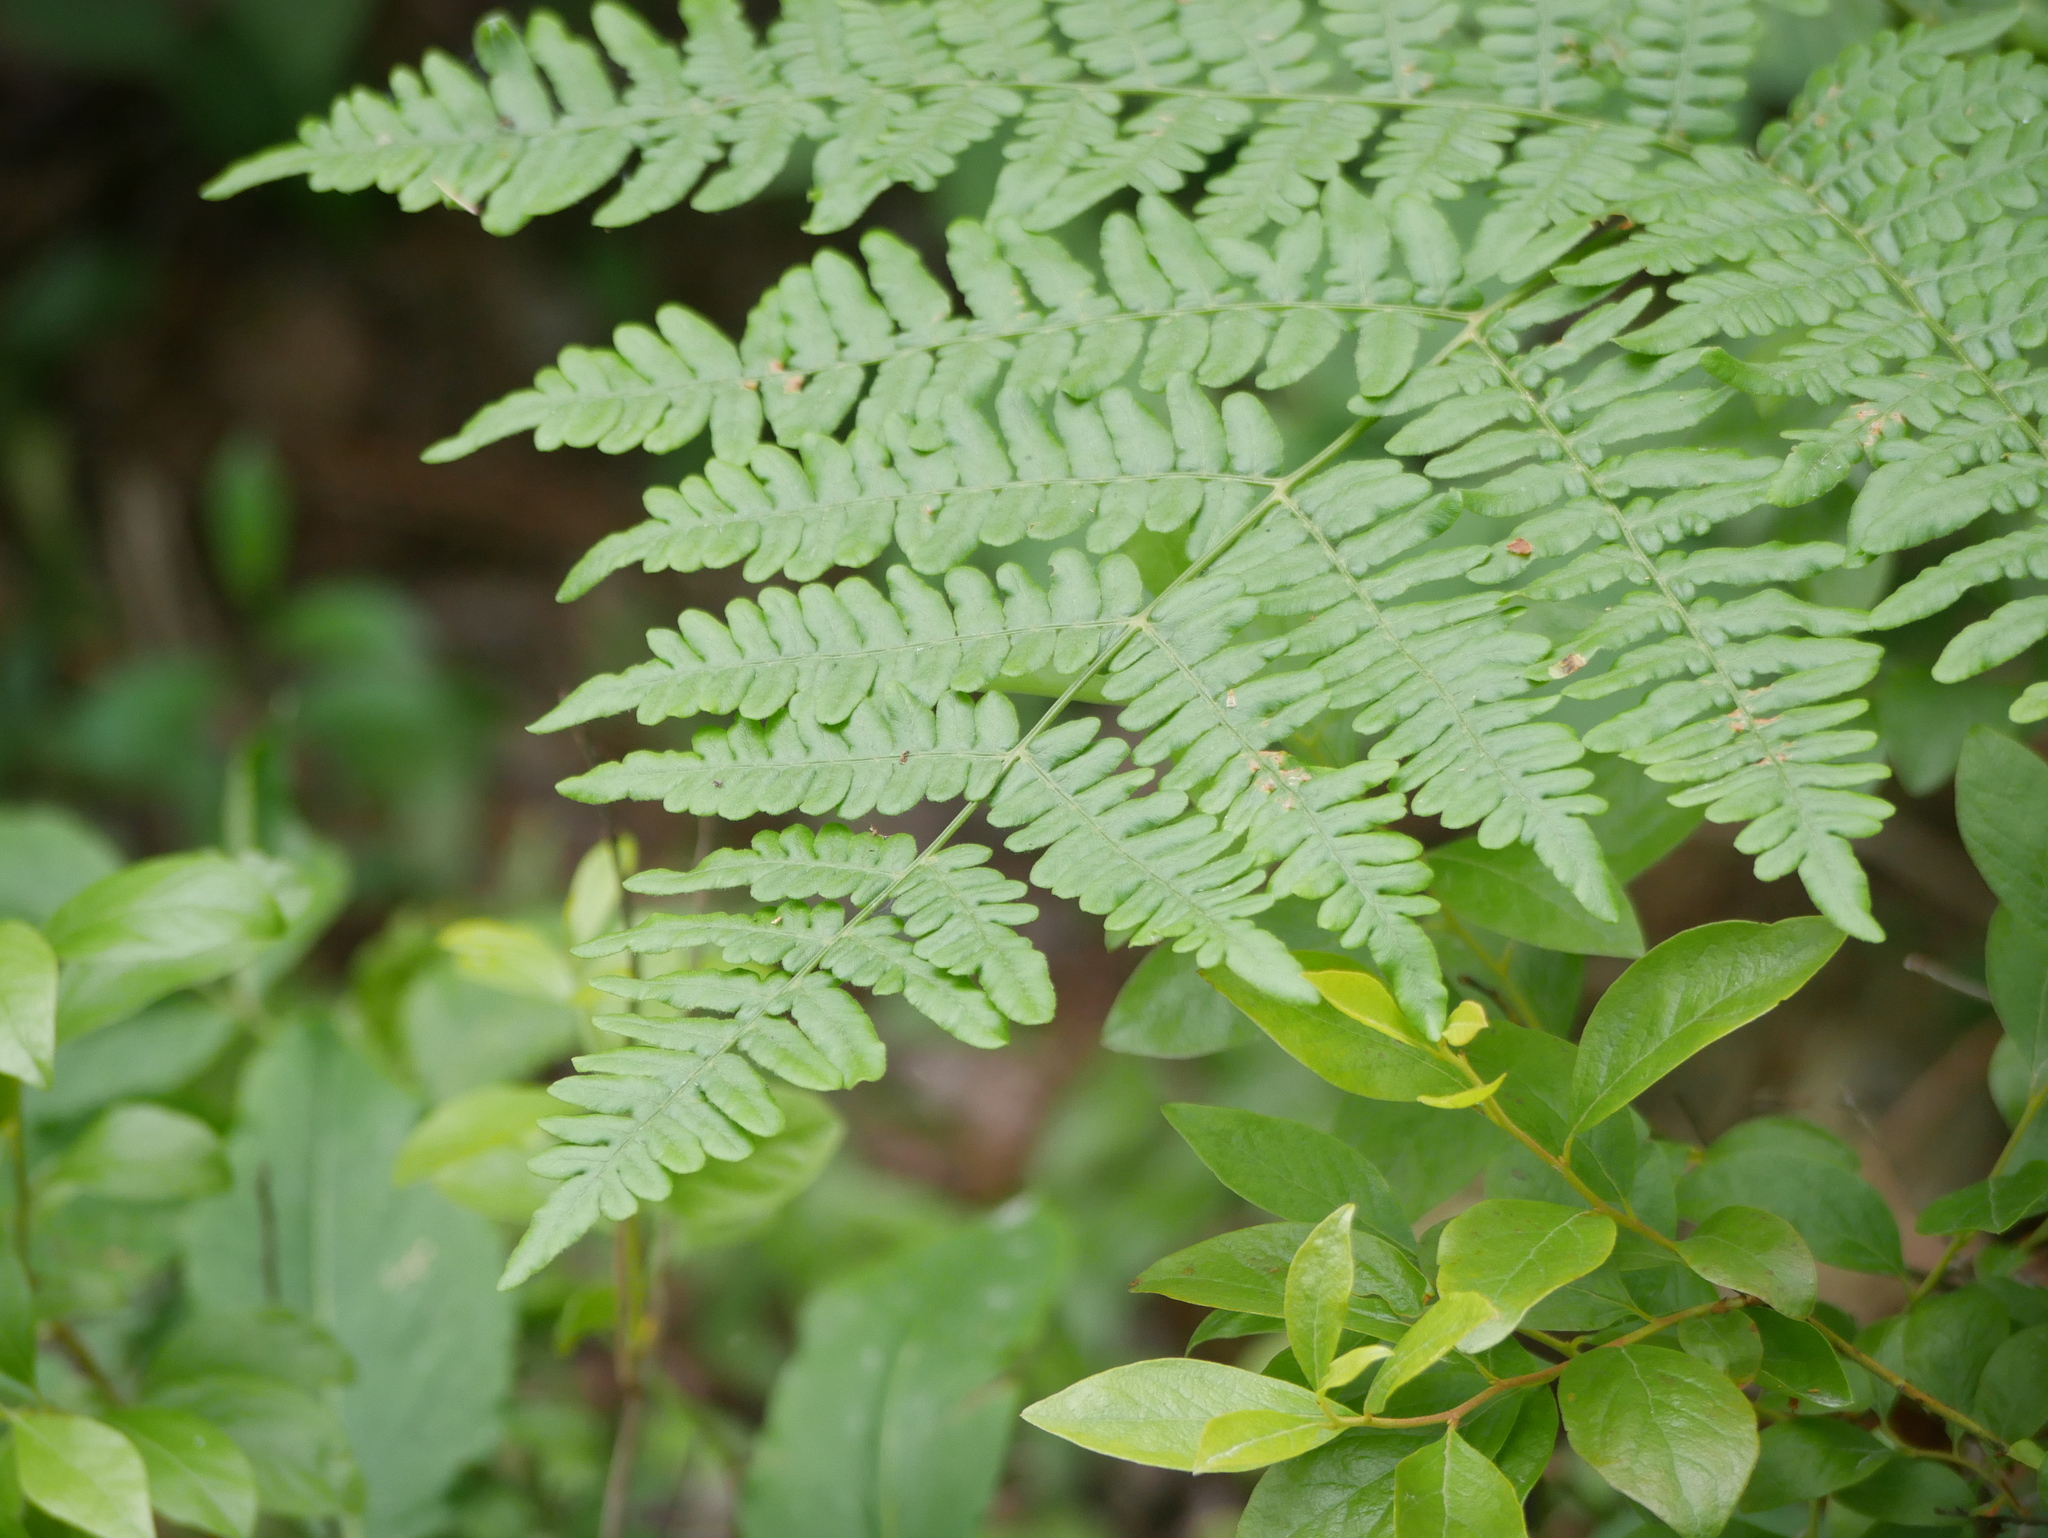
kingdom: Plantae
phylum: Tracheophyta
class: Polypodiopsida
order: Polypodiales
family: Dennstaedtiaceae
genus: Pteridium
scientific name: Pteridium aquilinum
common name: Bracken
